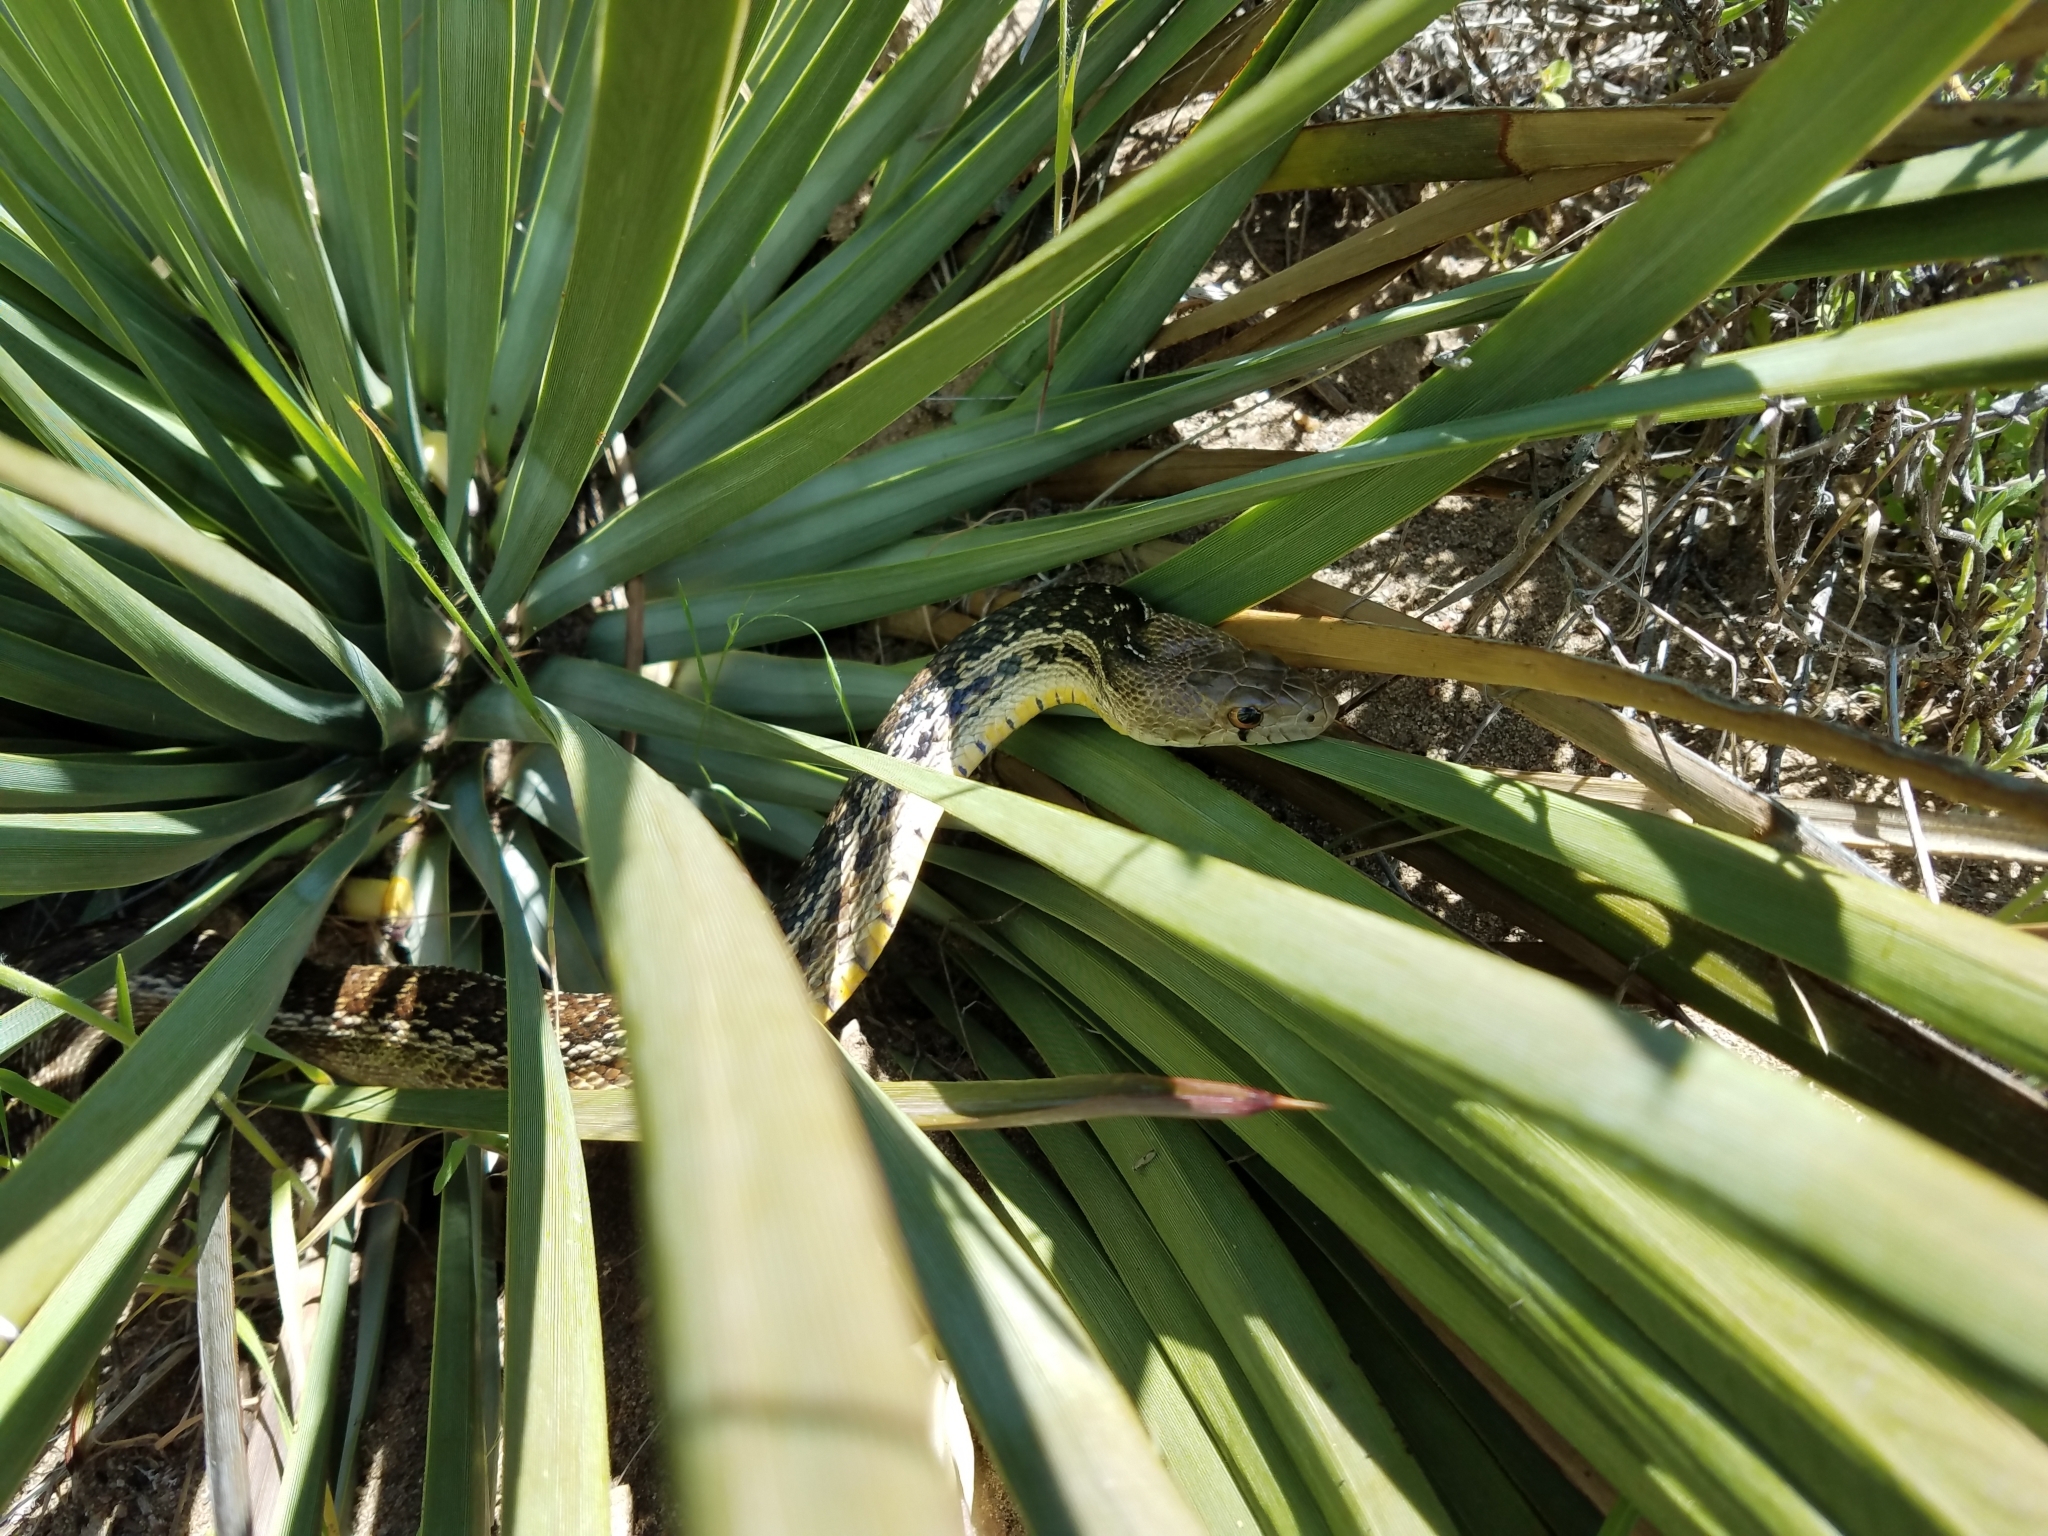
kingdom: Animalia
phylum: Chordata
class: Squamata
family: Colubridae
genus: Pituophis
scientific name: Pituophis catenifer
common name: Gopher snake
